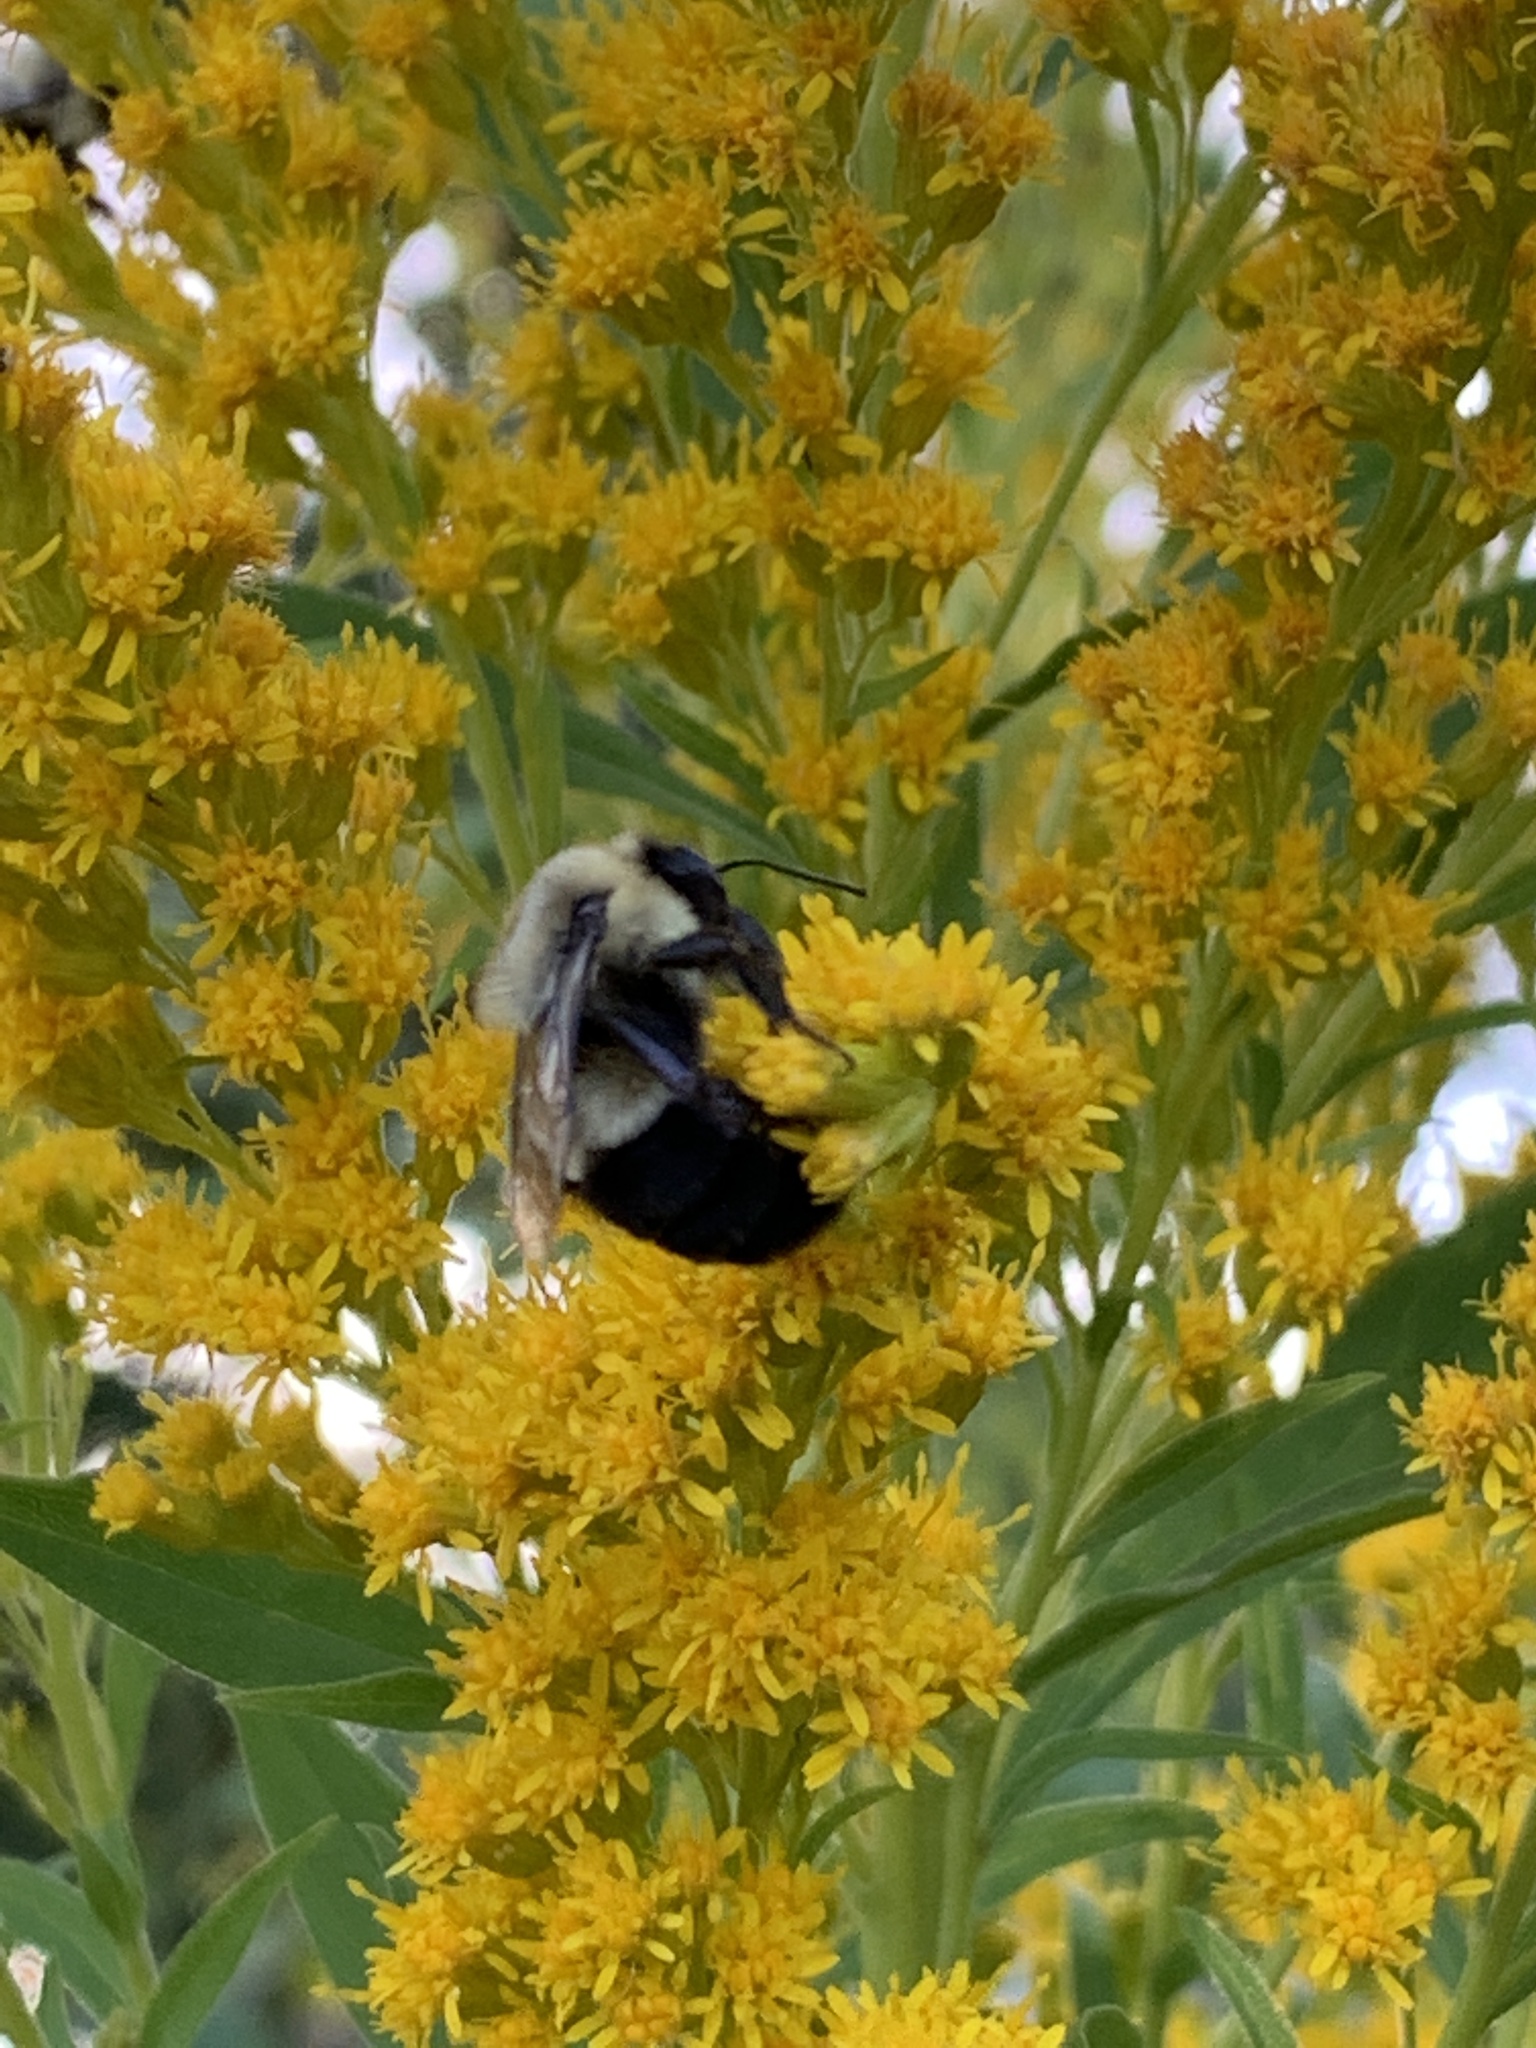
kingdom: Animalia
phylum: Arthropoda
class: Insecta
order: Hymenoptera
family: Apidae
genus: Bombus
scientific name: Bombus impatiens
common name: Common eastern bumble bee
